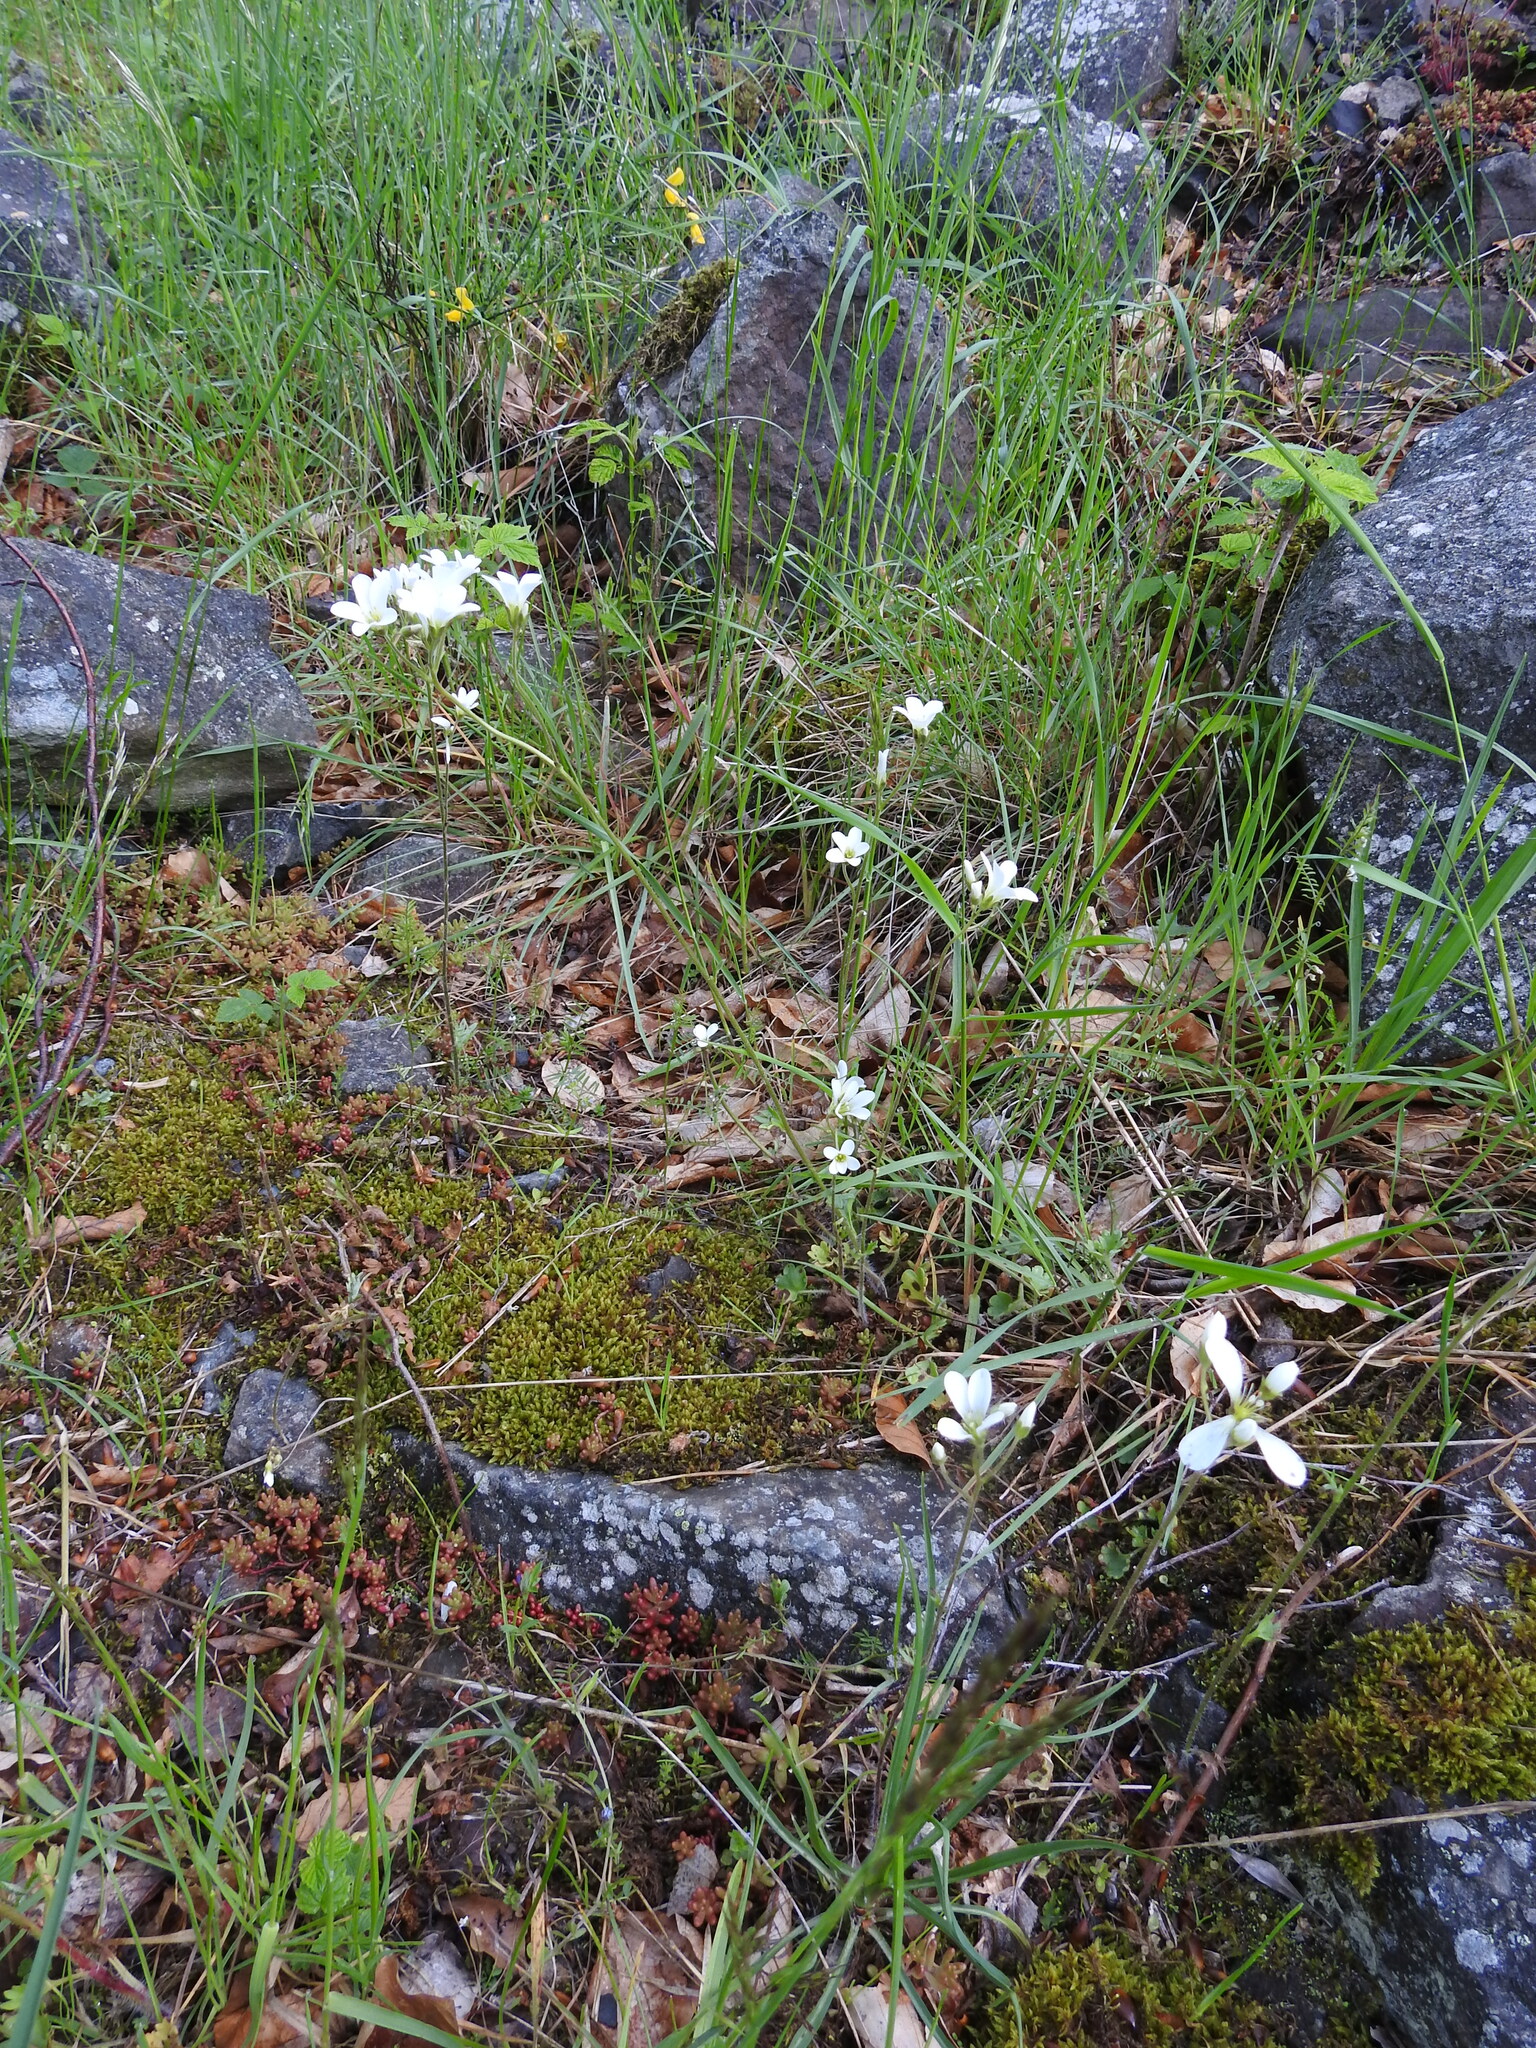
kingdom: Plantae
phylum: Tracheophyta
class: Magnoliopsida
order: Saxifragales
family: Saxifragaceae
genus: Saxifraga
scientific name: Saxifraga granulata
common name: Meadow saxifrage
